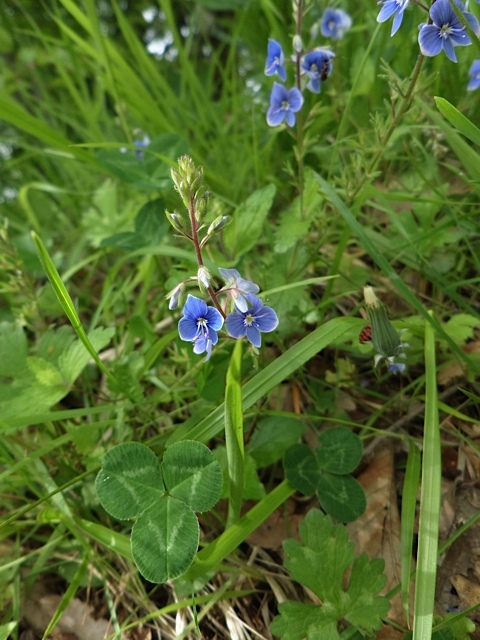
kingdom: Plantae
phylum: Tracheophyta
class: Magnoliopsida
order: Lamiales
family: Plantaginaceae
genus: Veronica
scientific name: Veronica chamaedrys
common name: Germander speedwell
